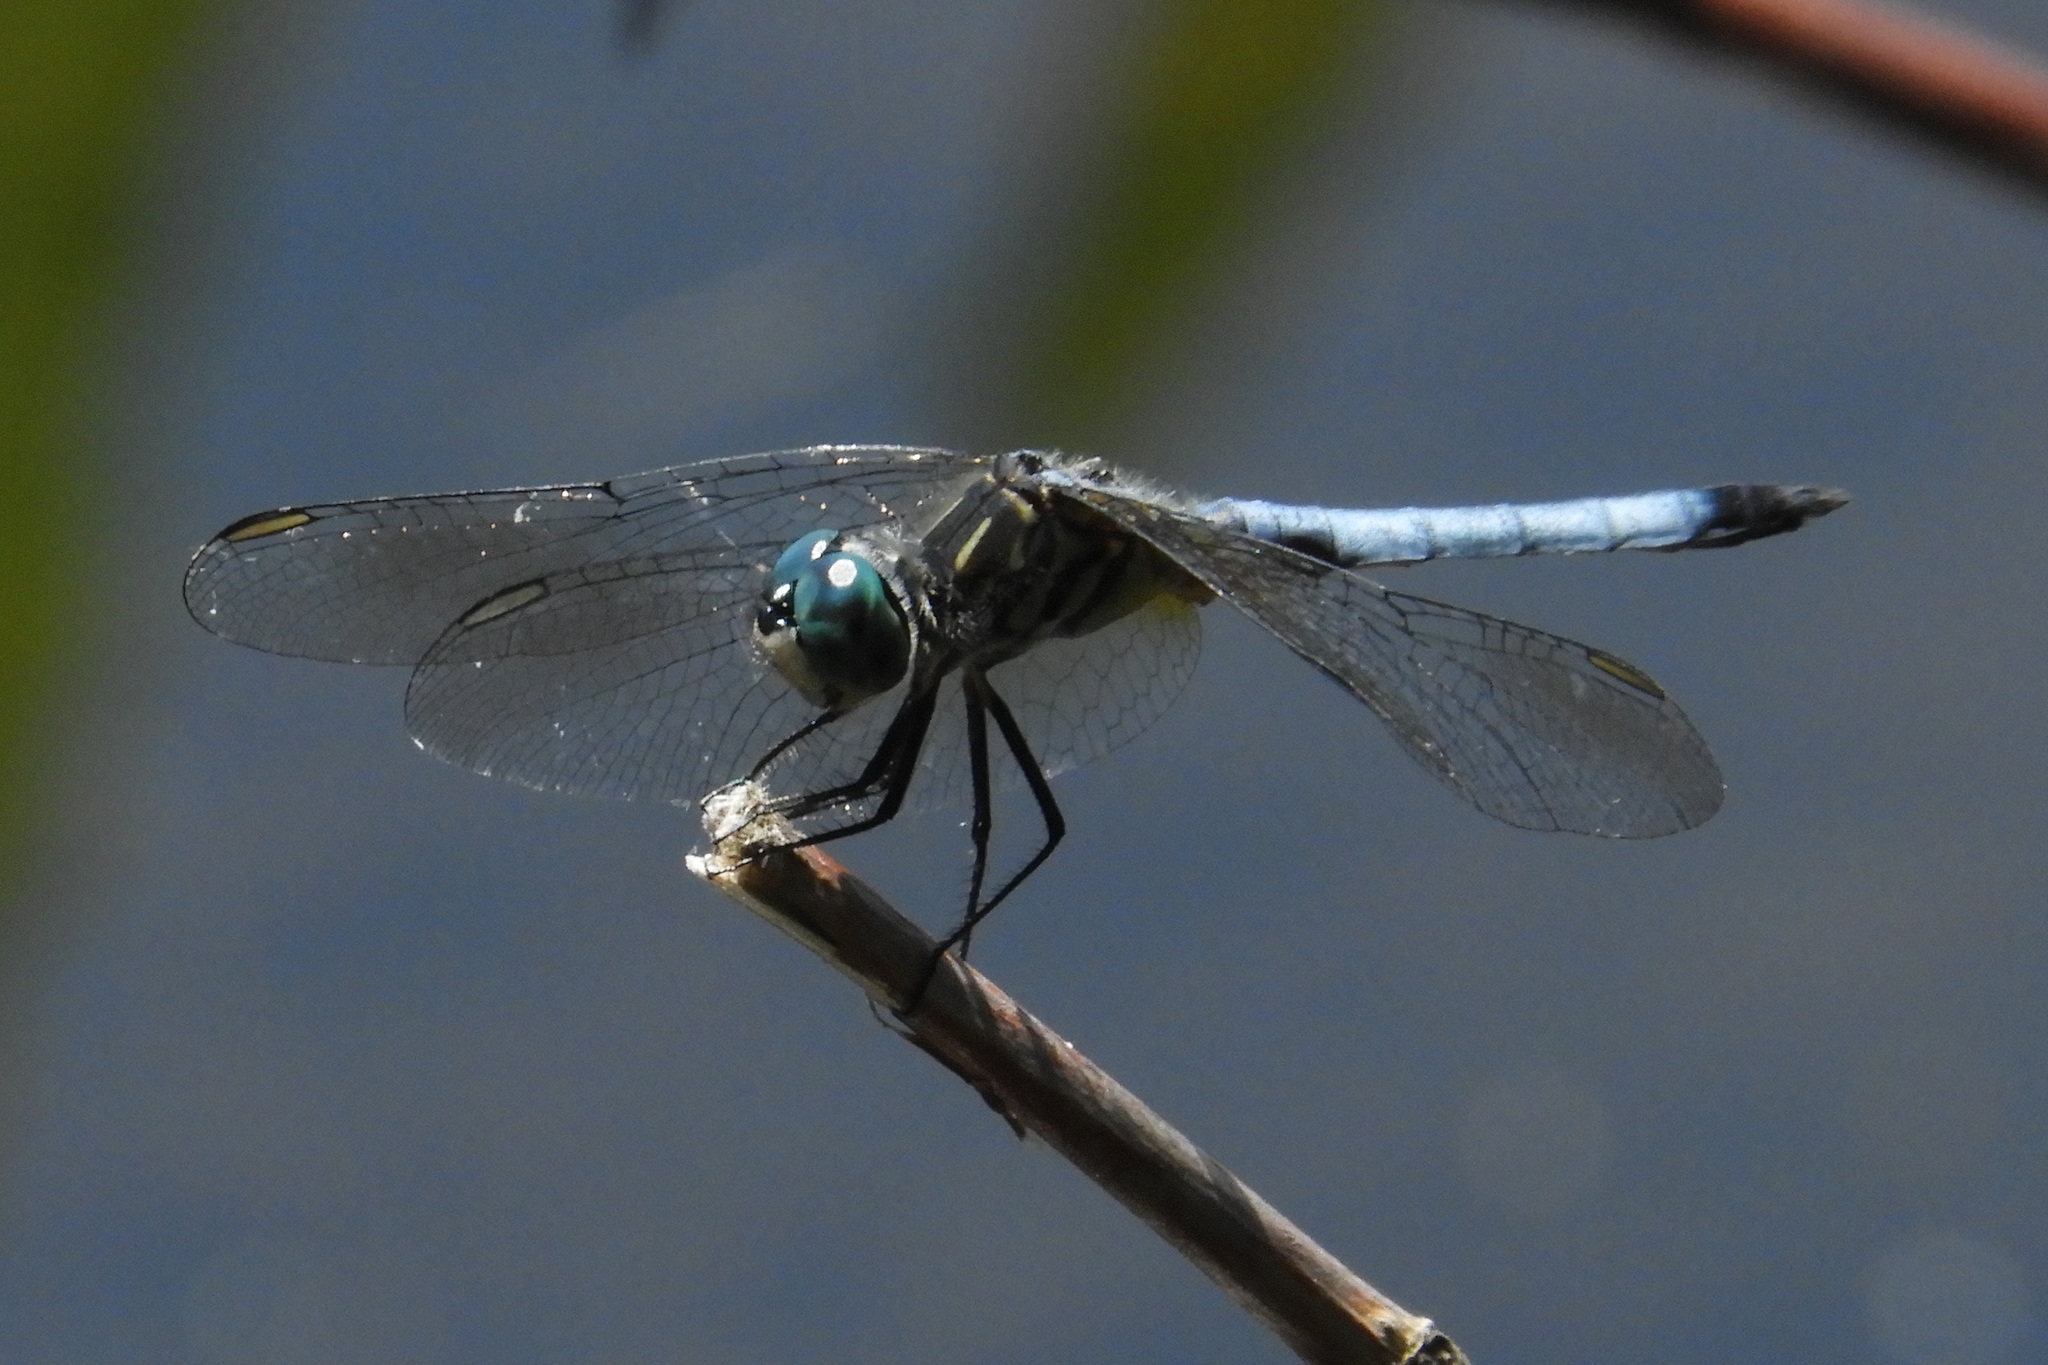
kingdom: Animalia
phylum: Arthropoda
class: Insecta
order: Odonata
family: Libellulidae
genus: Pachydiplax
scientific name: Pachydiplax longipennis
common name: Blue dasher
